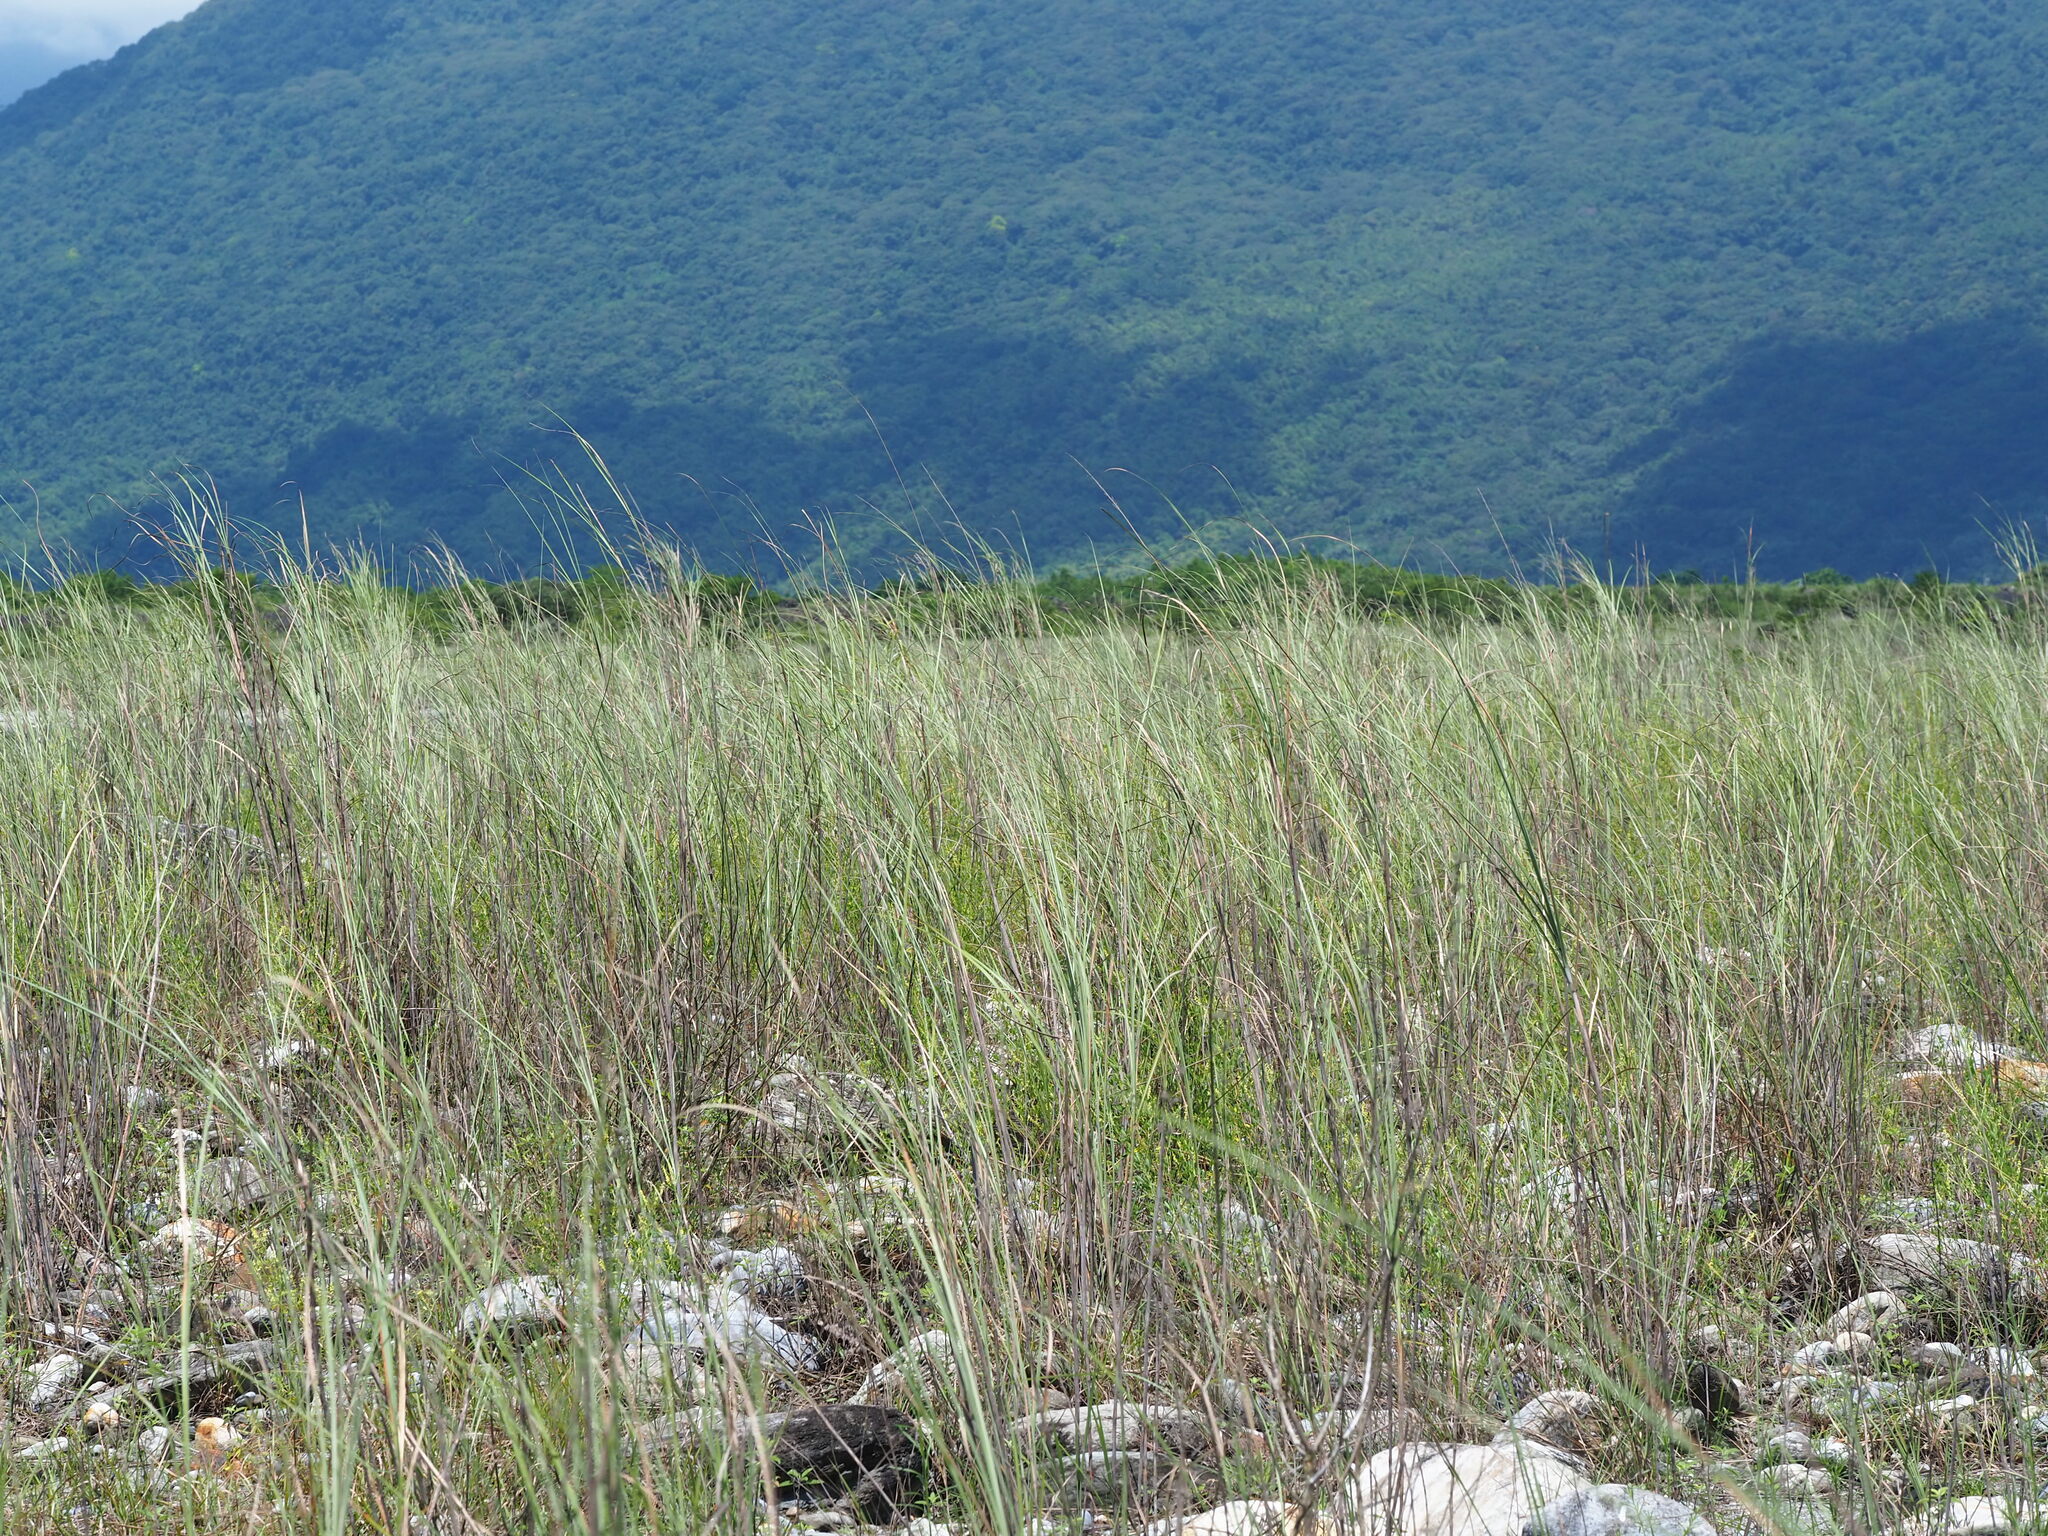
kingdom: Plantae
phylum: Tracheophyta
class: Liliopsida
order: Poales
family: Poaceae
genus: Saccharum
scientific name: Saccharum spontaneum
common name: Wild sugarcane
